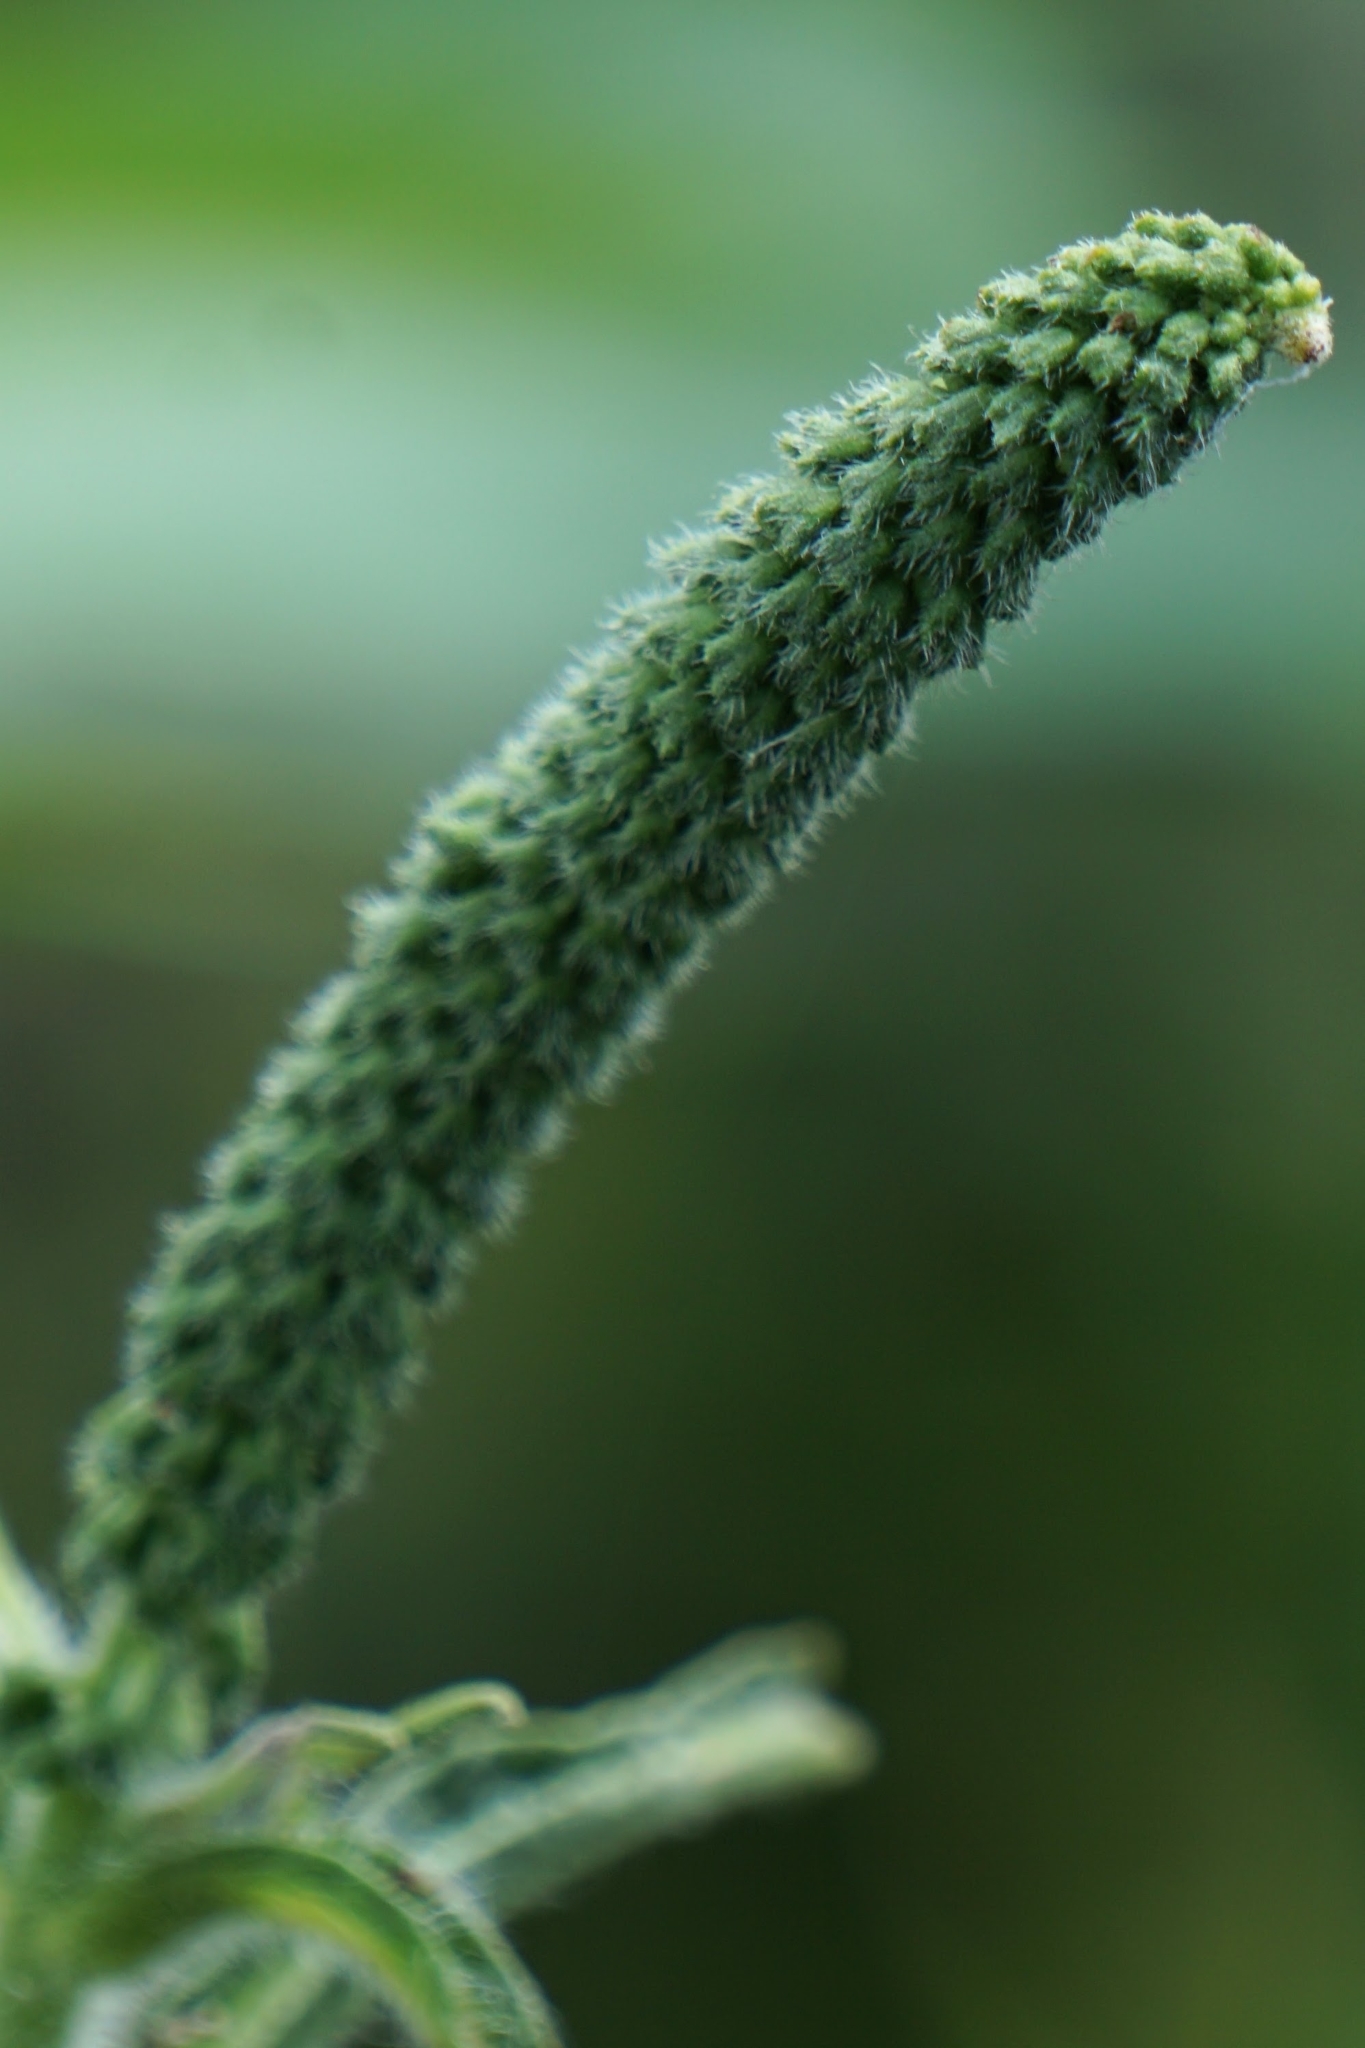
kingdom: Plantae
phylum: Tracheophyta
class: Magnoliopsida
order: Asterales
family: Asteraceae
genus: Ambrosia
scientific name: Ambrosia trifida
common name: Giant ragweed
